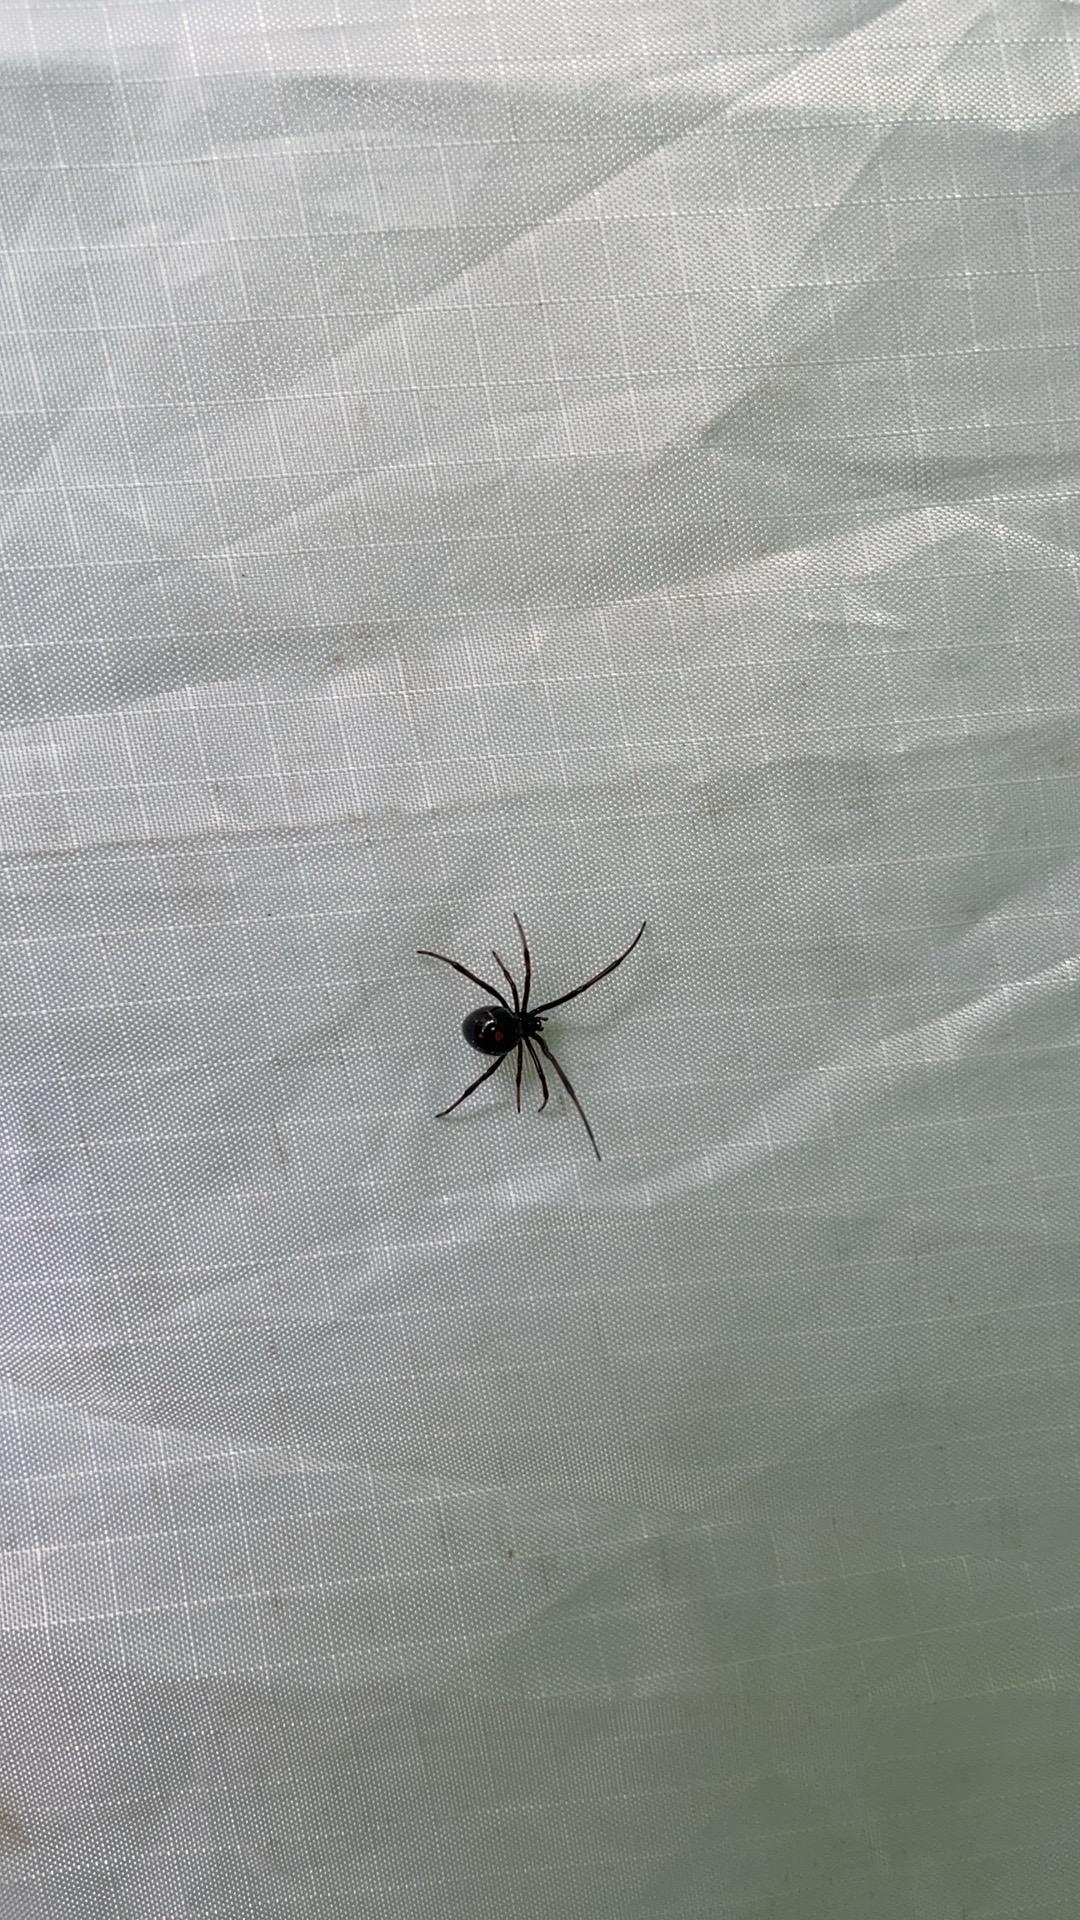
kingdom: Animalia
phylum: Arthropoda
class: Arachnida
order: Araneae
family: Theridiidae
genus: Latrodectus
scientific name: Latrodectus variolus
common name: Northern black widow
